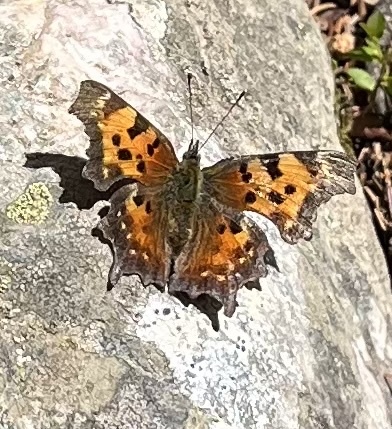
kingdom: Animalia
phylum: Arthropoda
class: Insecta
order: Lepidoptera
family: Nymphalidae
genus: Polygonia
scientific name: Polygonia faunus
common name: Green comma
